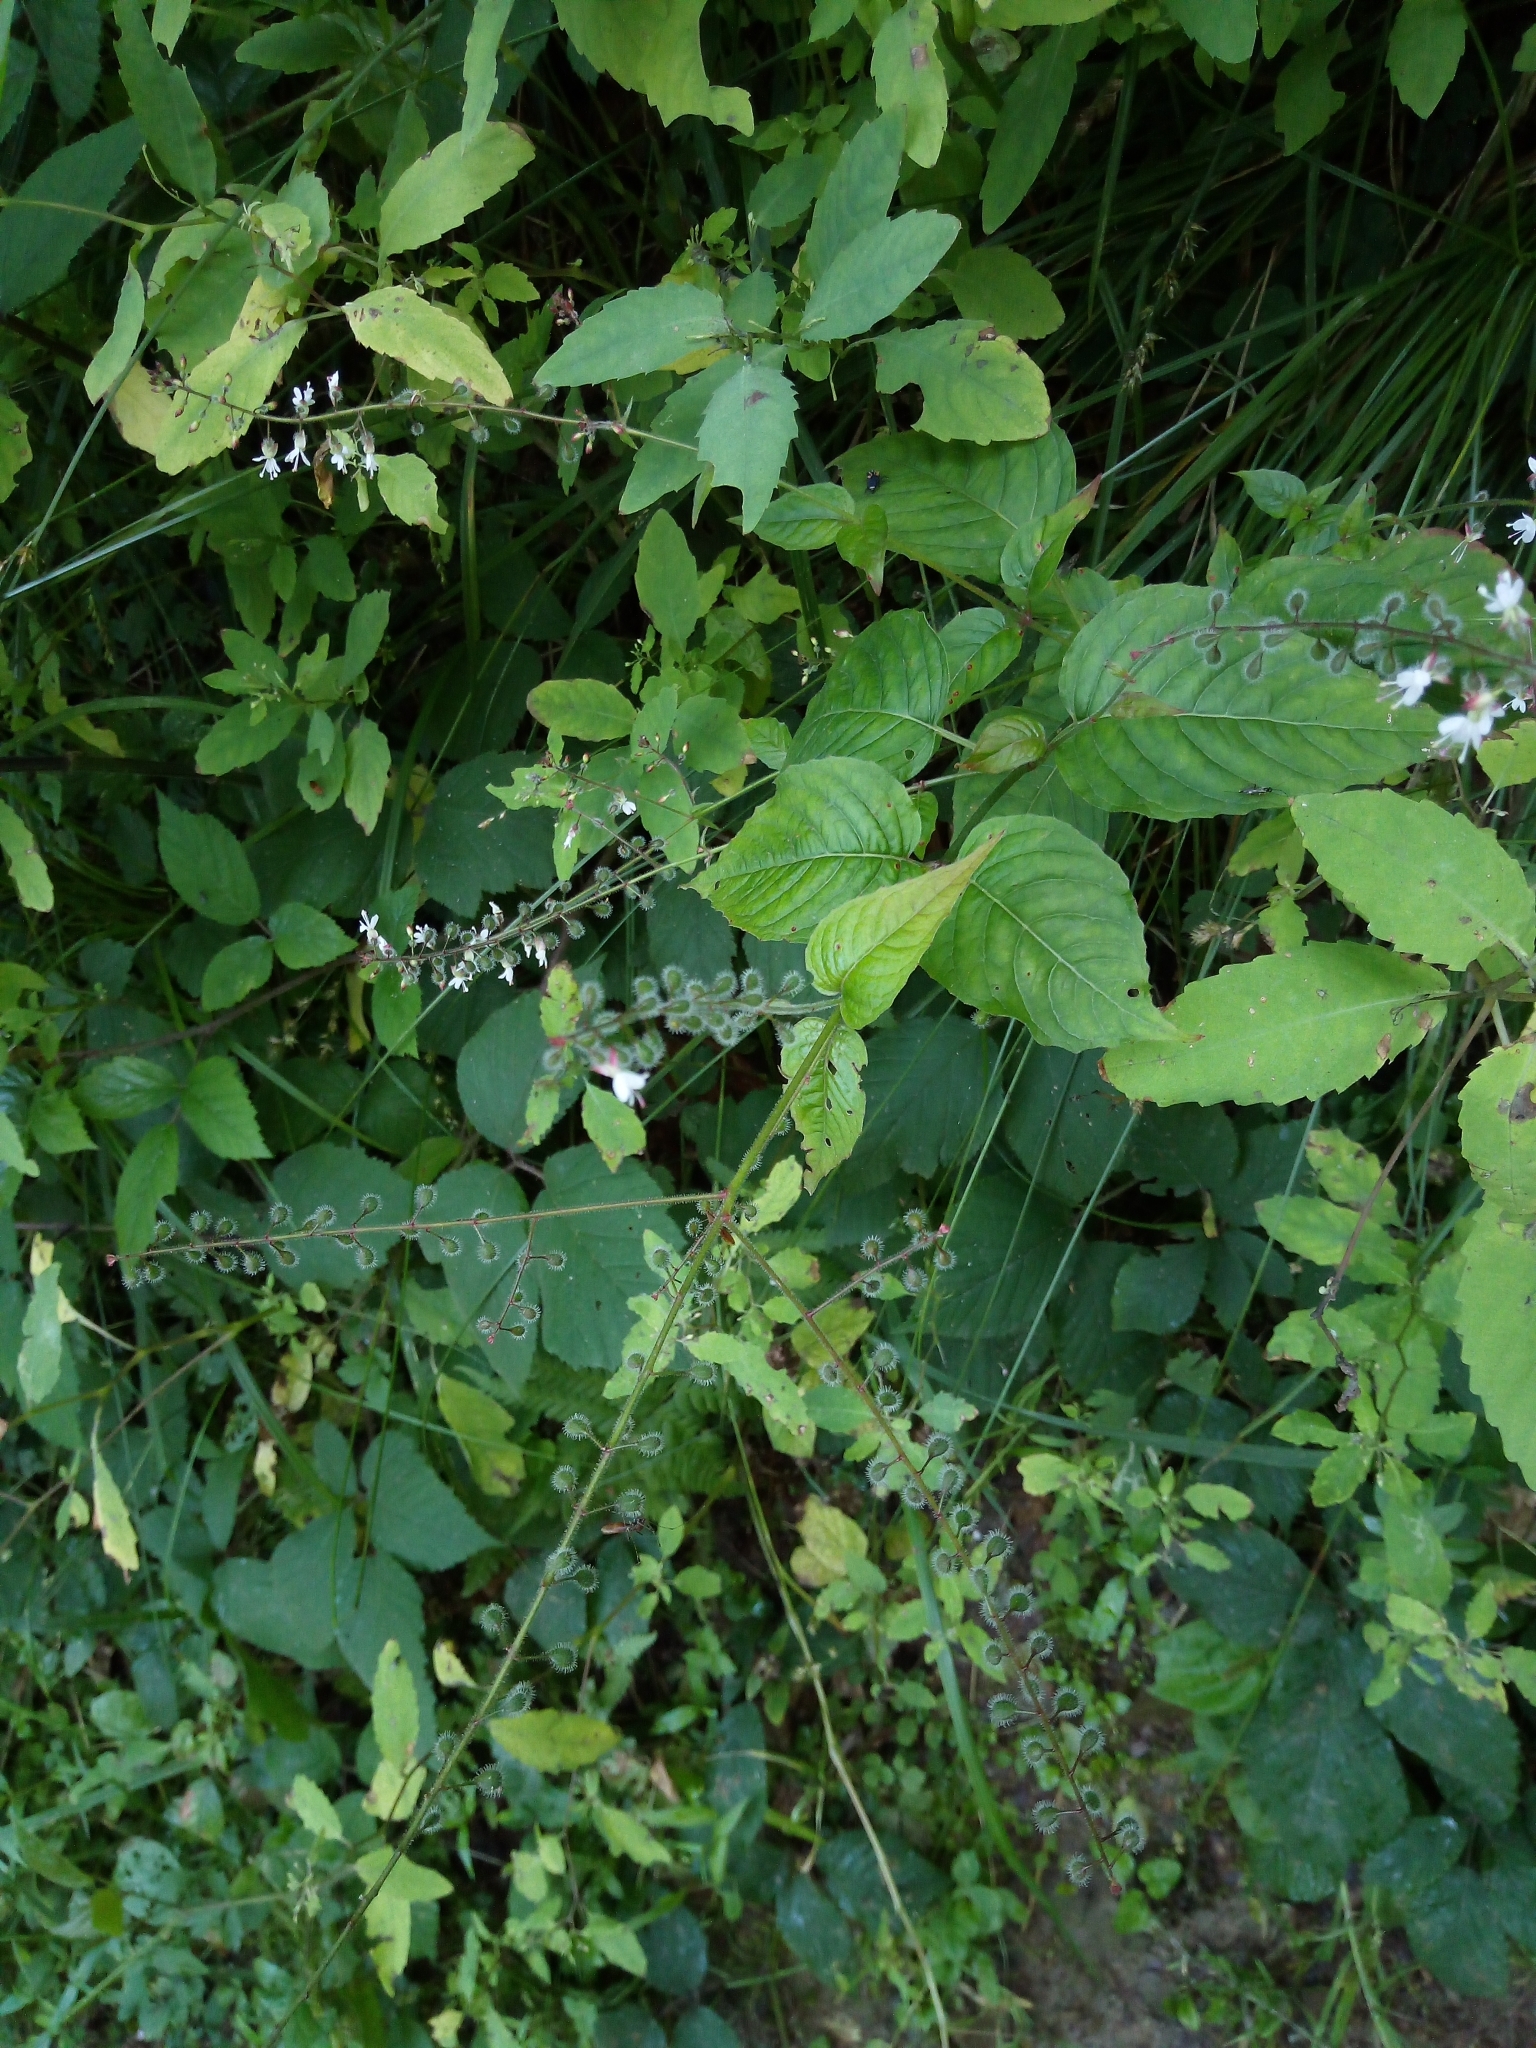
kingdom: Plantae
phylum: Tracheophyta
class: Magnoliopsida
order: Myrtales
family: Onagraceae
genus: Circaea
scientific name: Circaea lutetiana
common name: Enchanter's-nightshade
